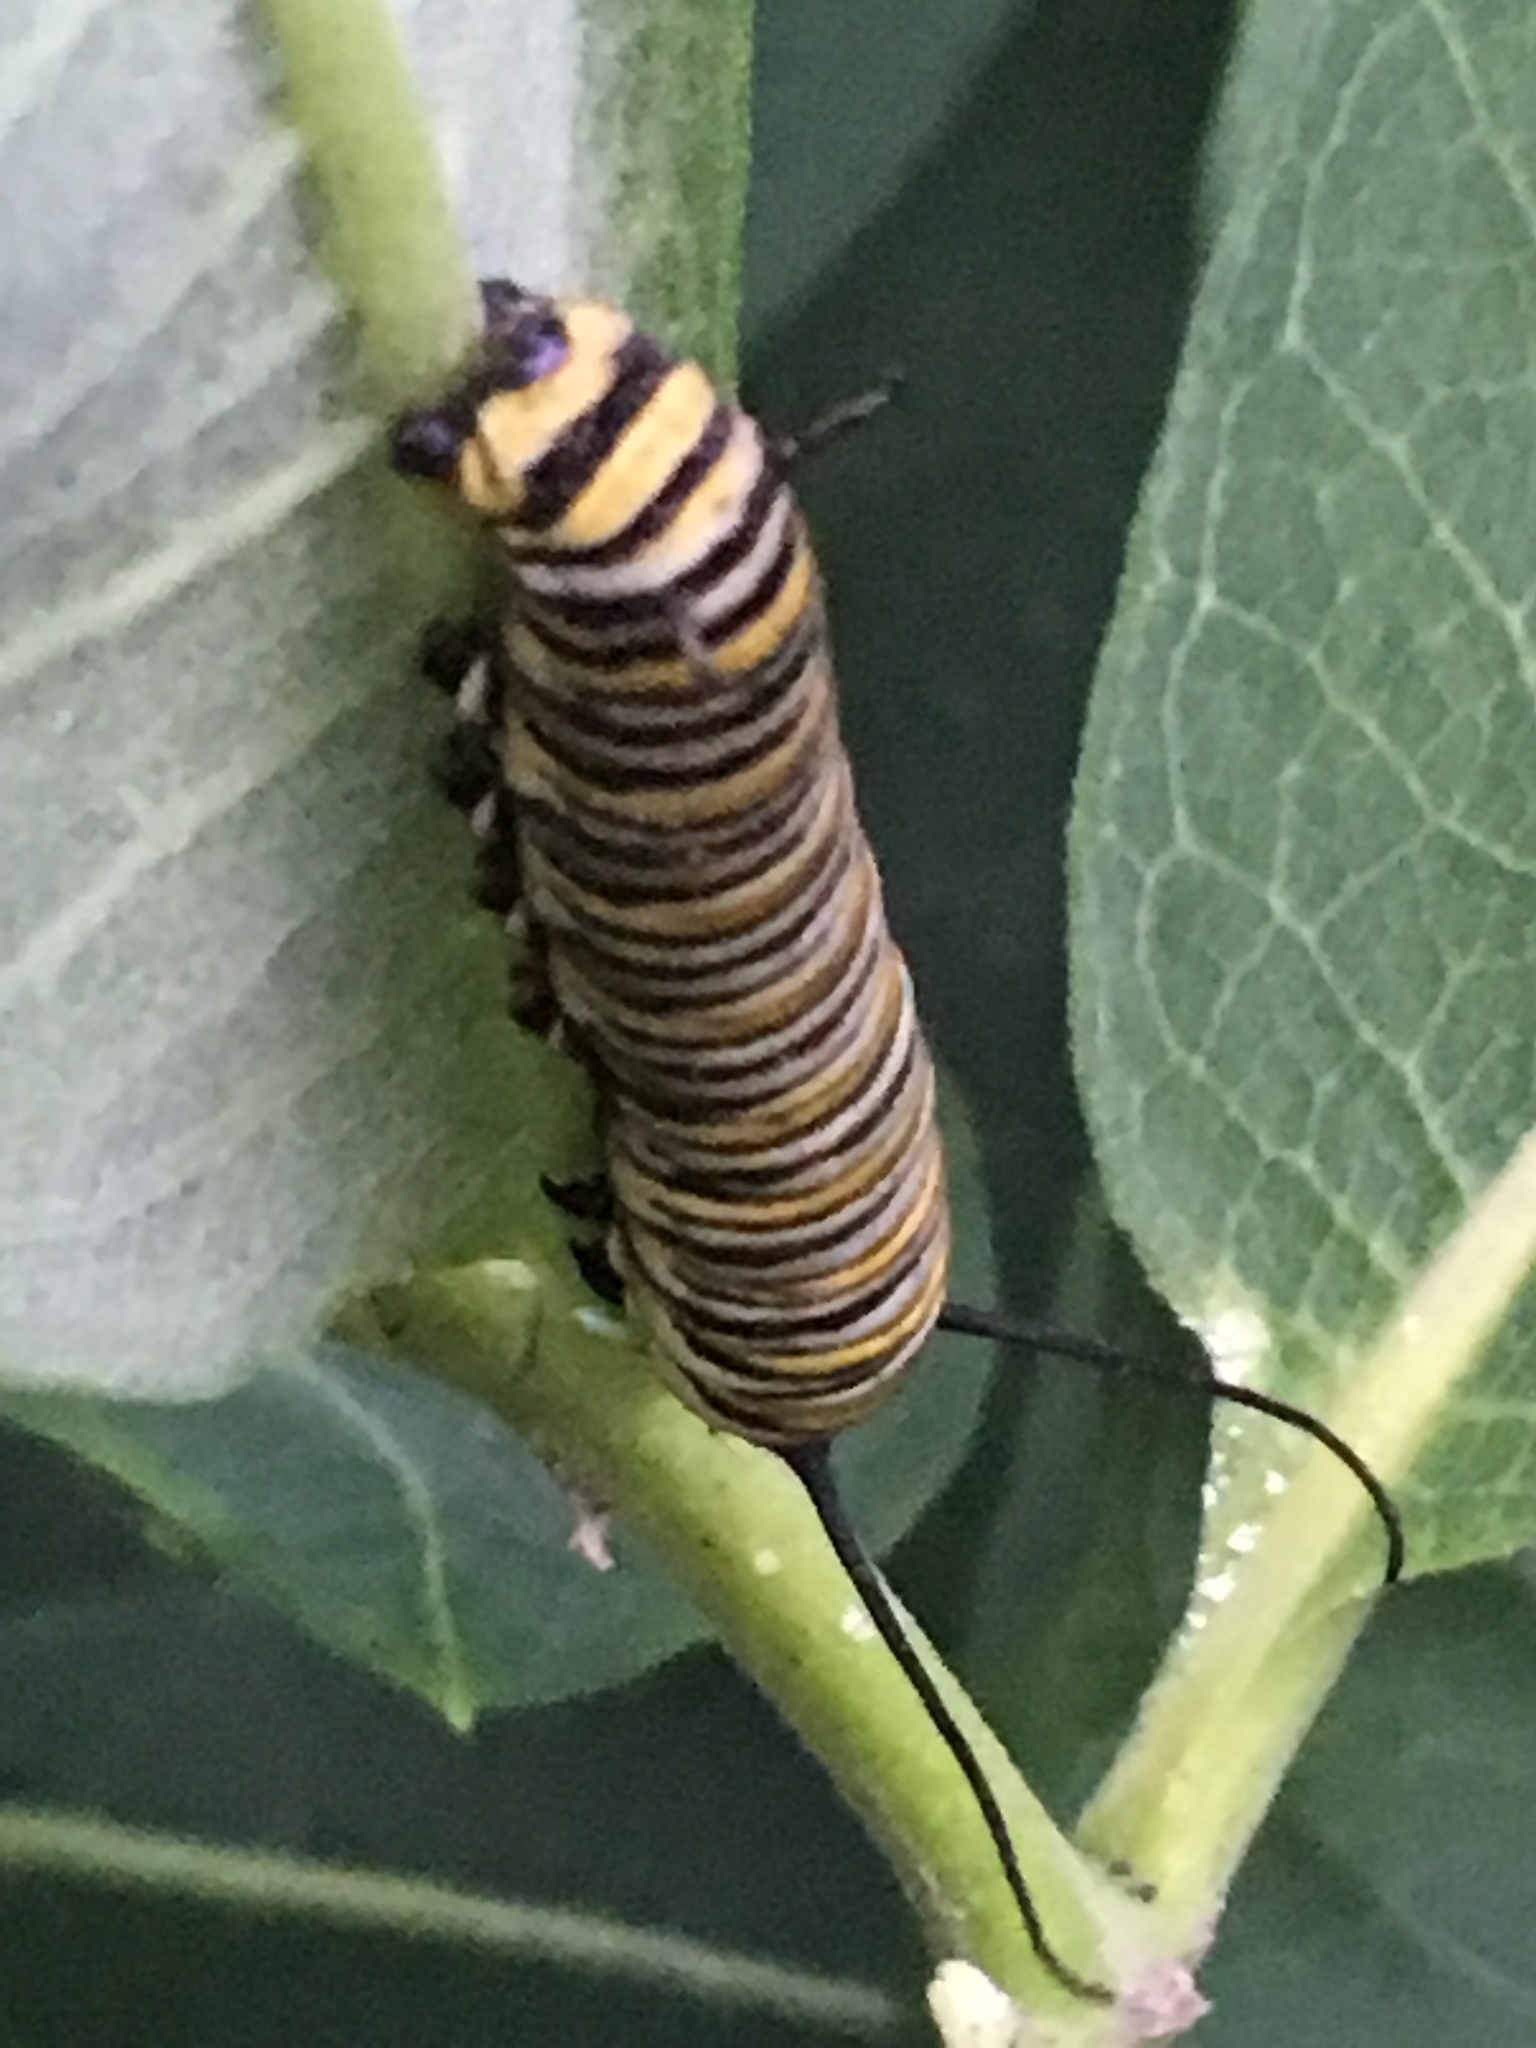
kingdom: Animalia
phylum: Arthropoda
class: Insecta
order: Lepidoptera
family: Nymphalidae
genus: Danaus
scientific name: Danaus plexippus
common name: Monarch
